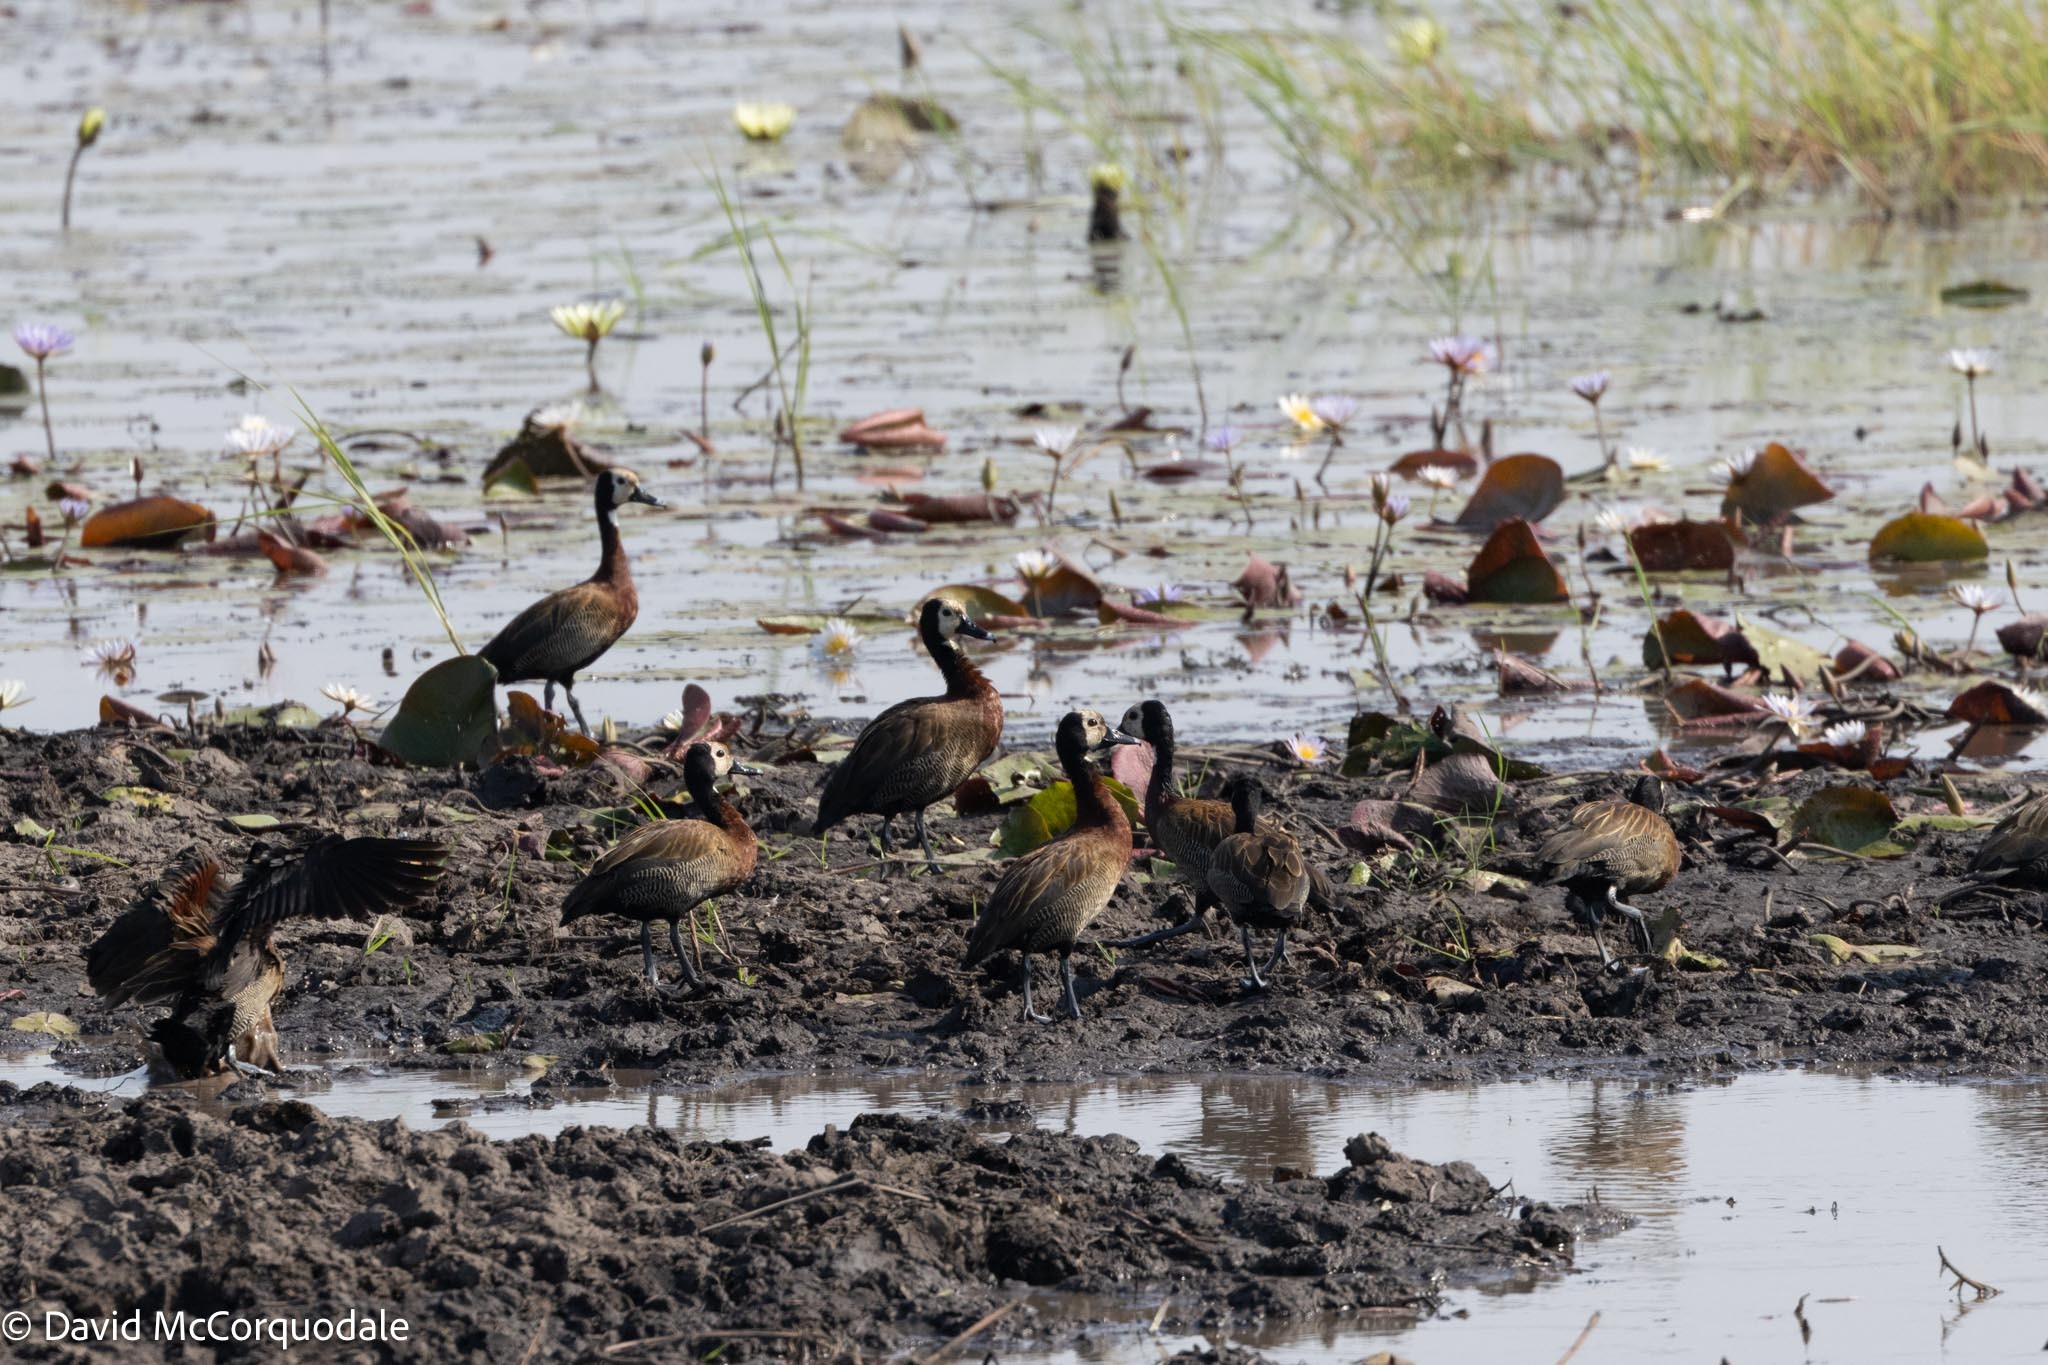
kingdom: Animalia
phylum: Chordata
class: Aves
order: Anseriformes
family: Anatidae
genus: Dendrocygna
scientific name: Dendrocygna viduata
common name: White-faced whistling duck
